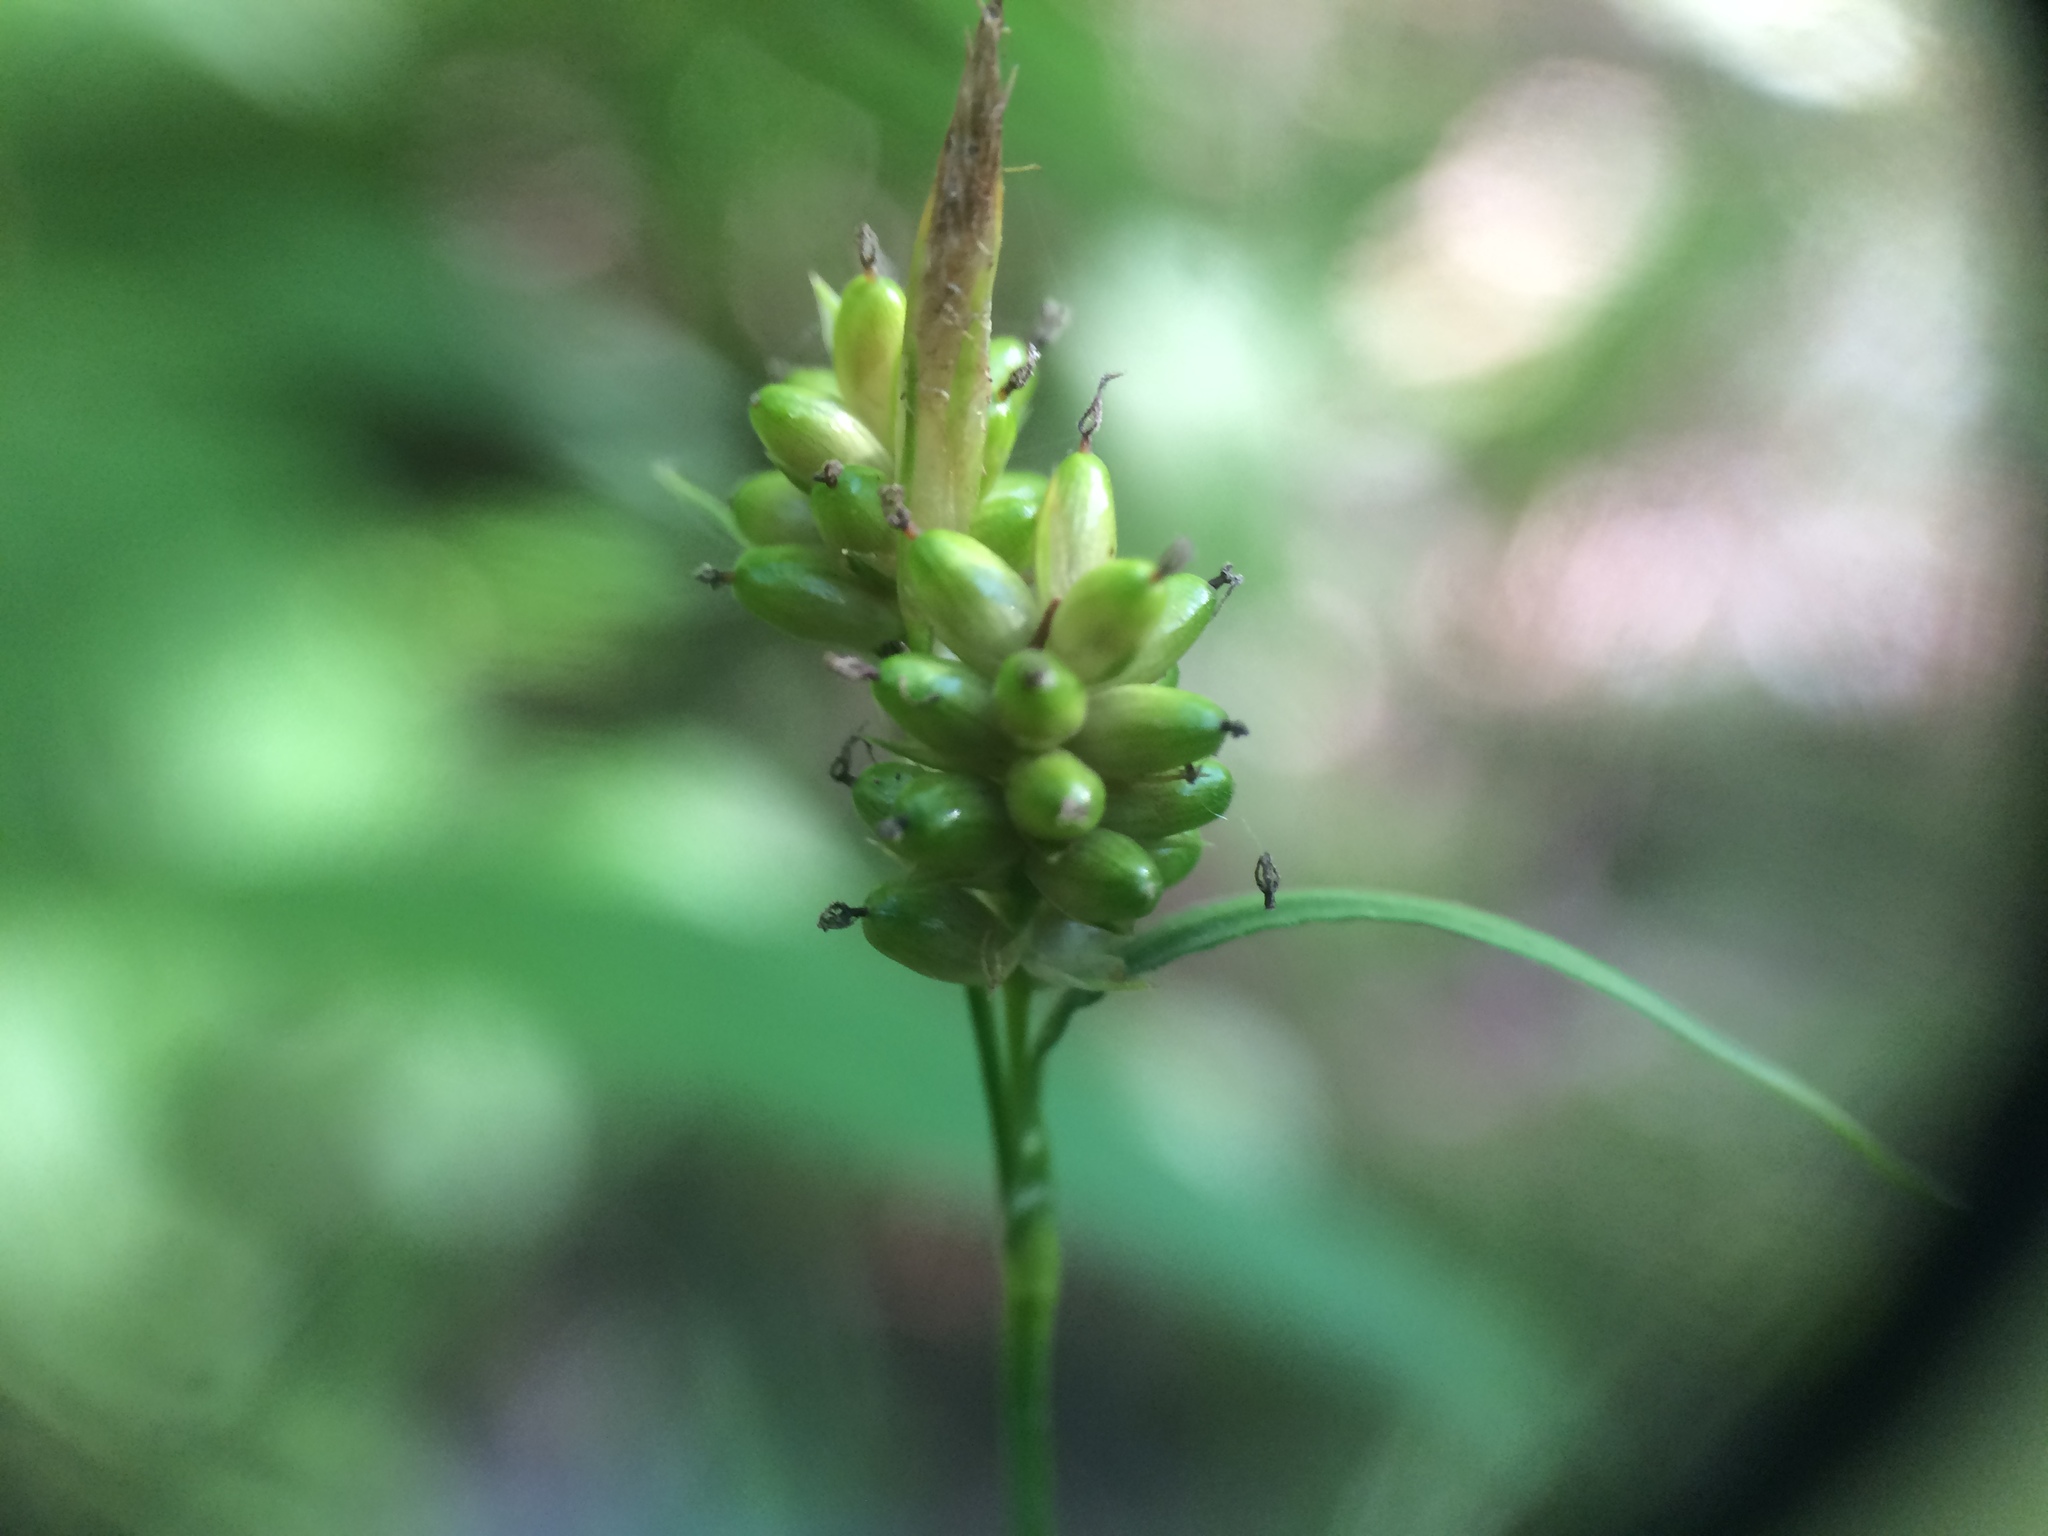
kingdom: Plantae
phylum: Tracheophyta
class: Liliopsida
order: Poales
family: Cyperaceae
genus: Carex
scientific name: Carex pallescens
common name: Pale sedge
